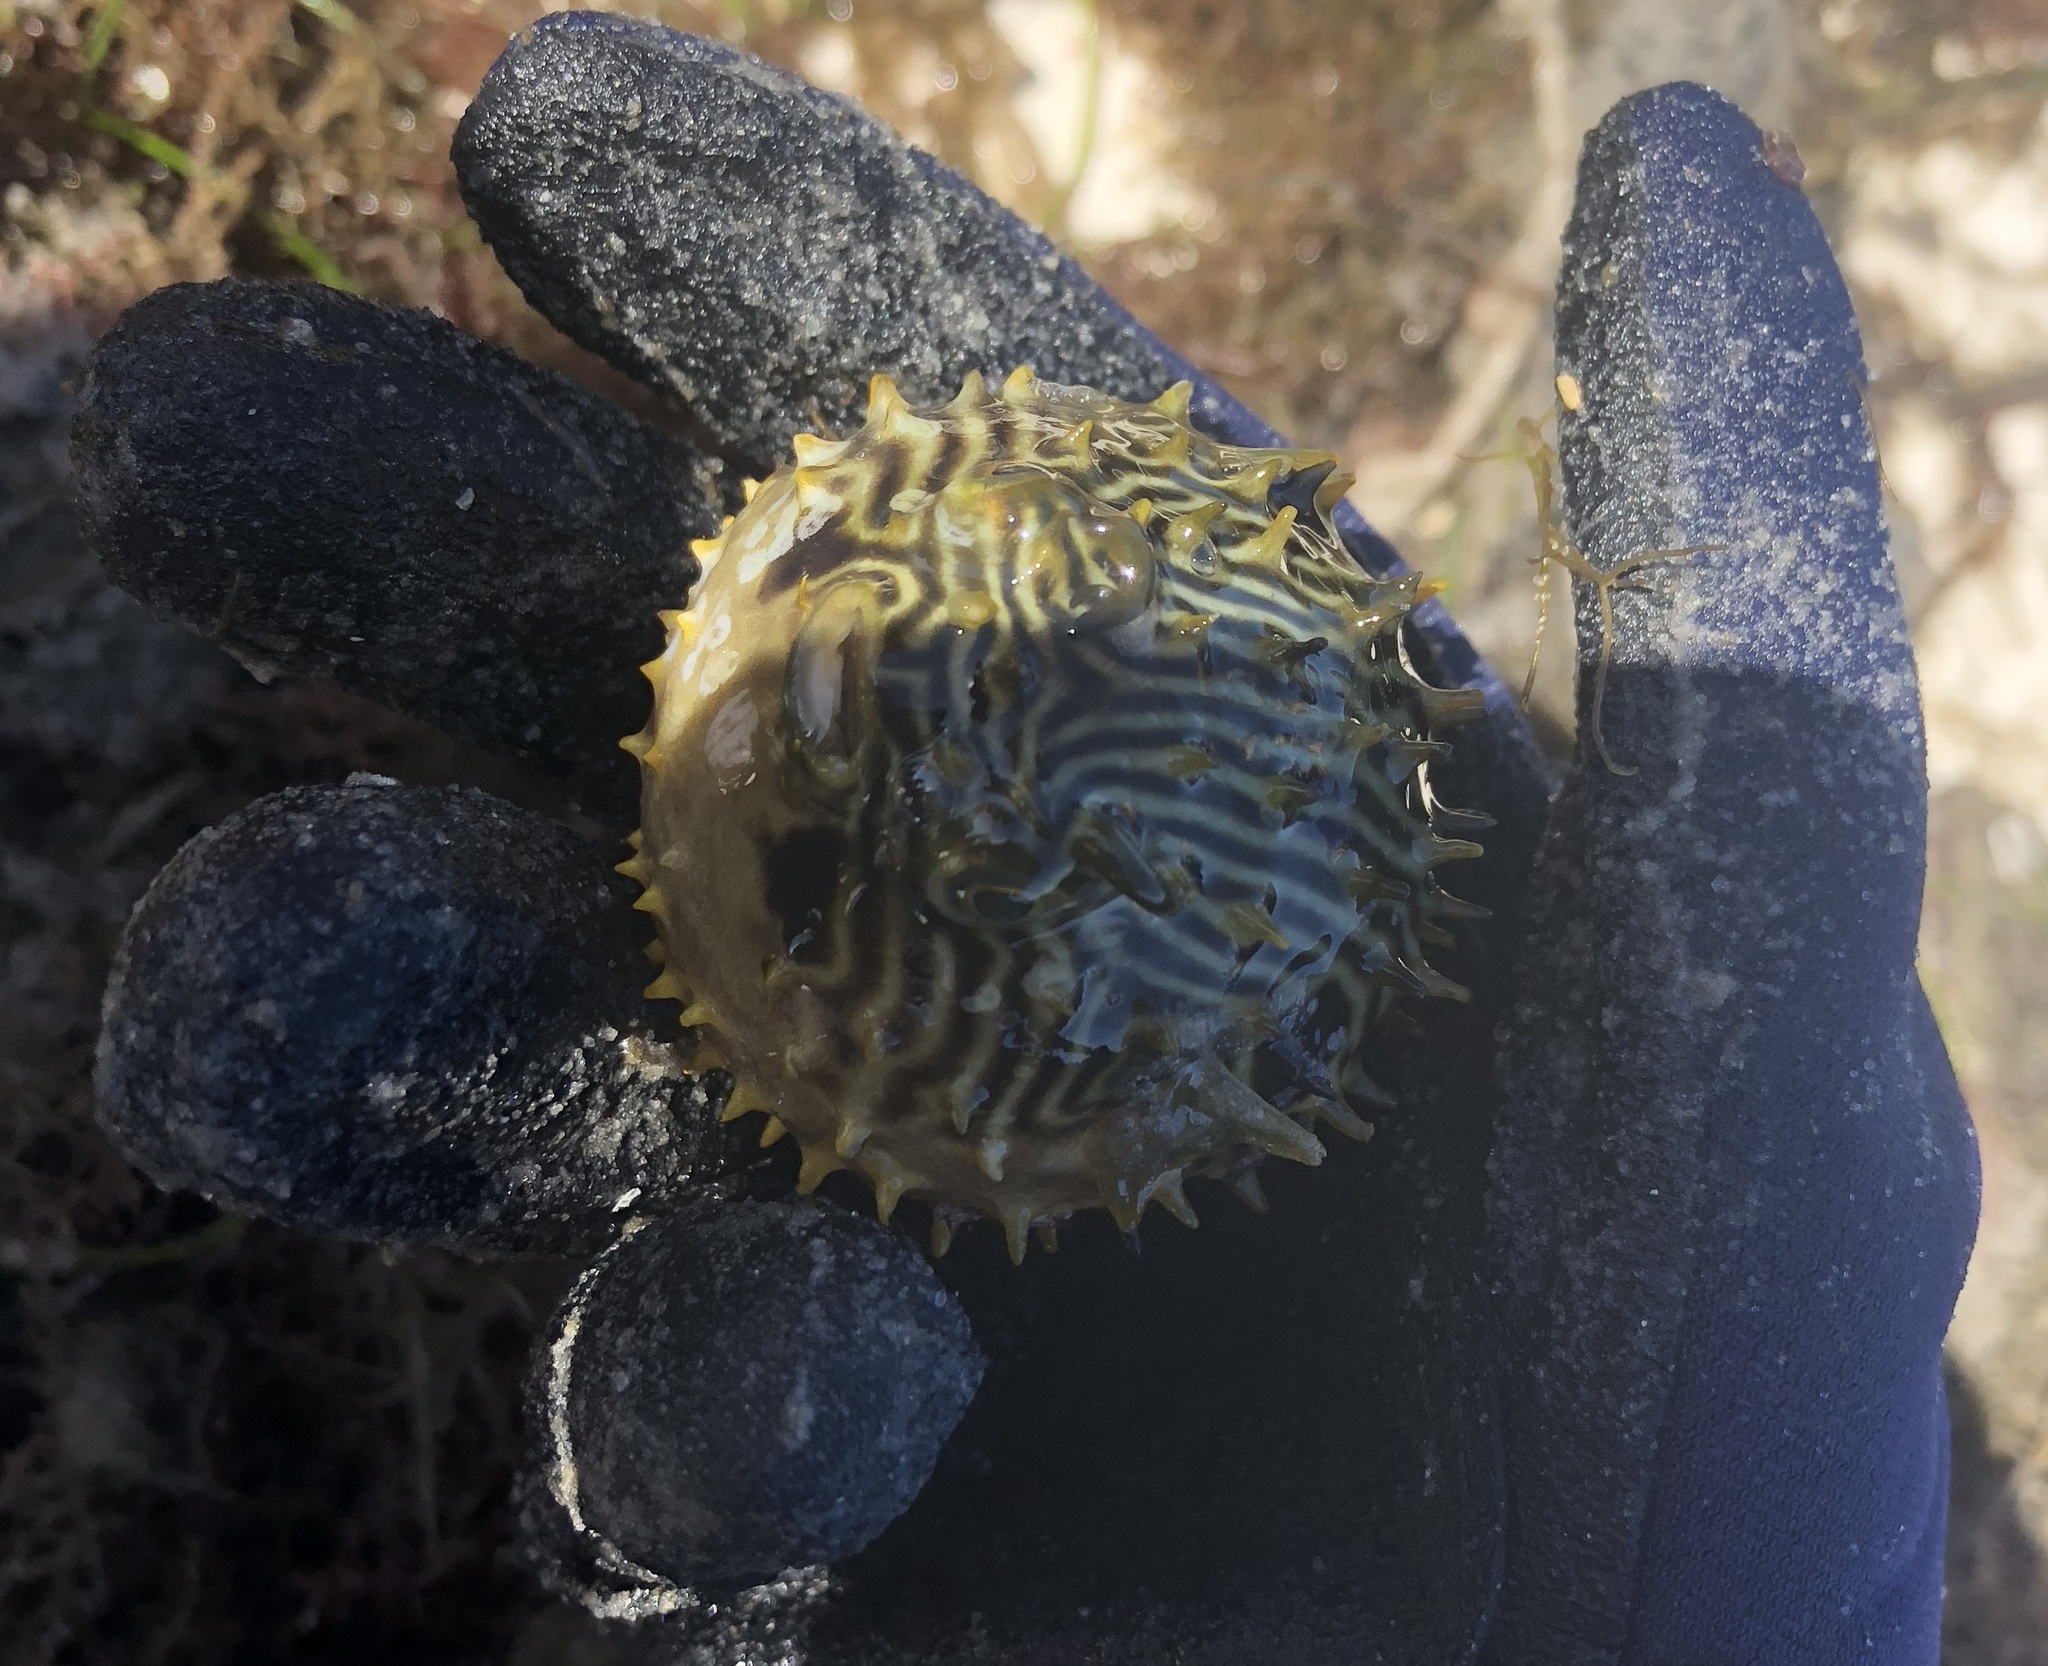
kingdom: Animalia
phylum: Chordata
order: Tetraodontiformes
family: Diodontidae
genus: Chilomycterus
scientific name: Chilomycterus schoepfii
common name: Striped burrfish
